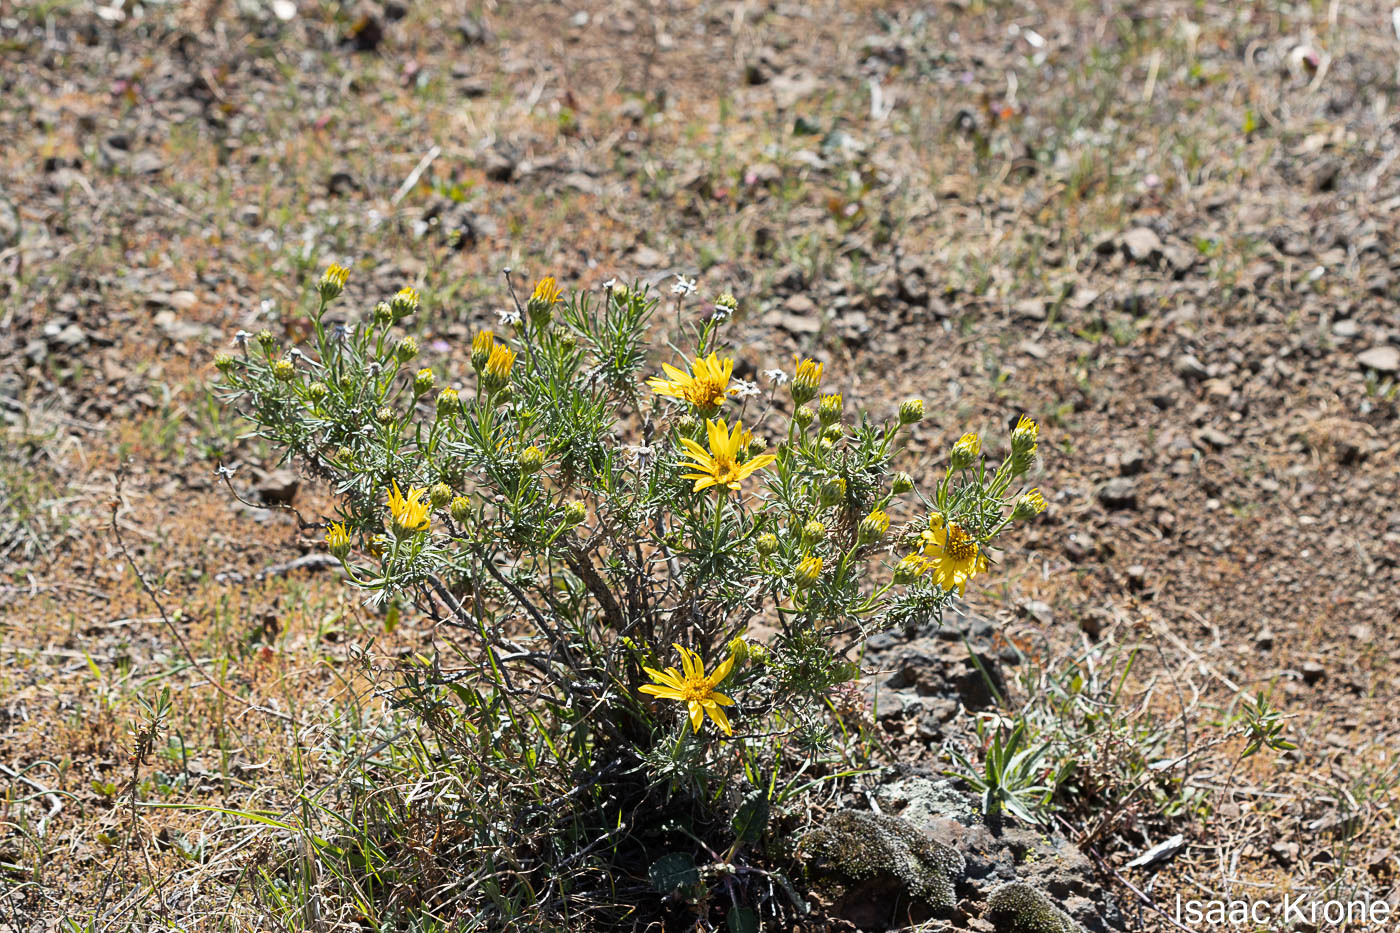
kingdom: Plantae
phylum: Tracheophyta
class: Magnoliopsida
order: Asterales
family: Asteraceae
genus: Ericameria
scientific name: Ericameria linearifolia
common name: Interior goldenbush
